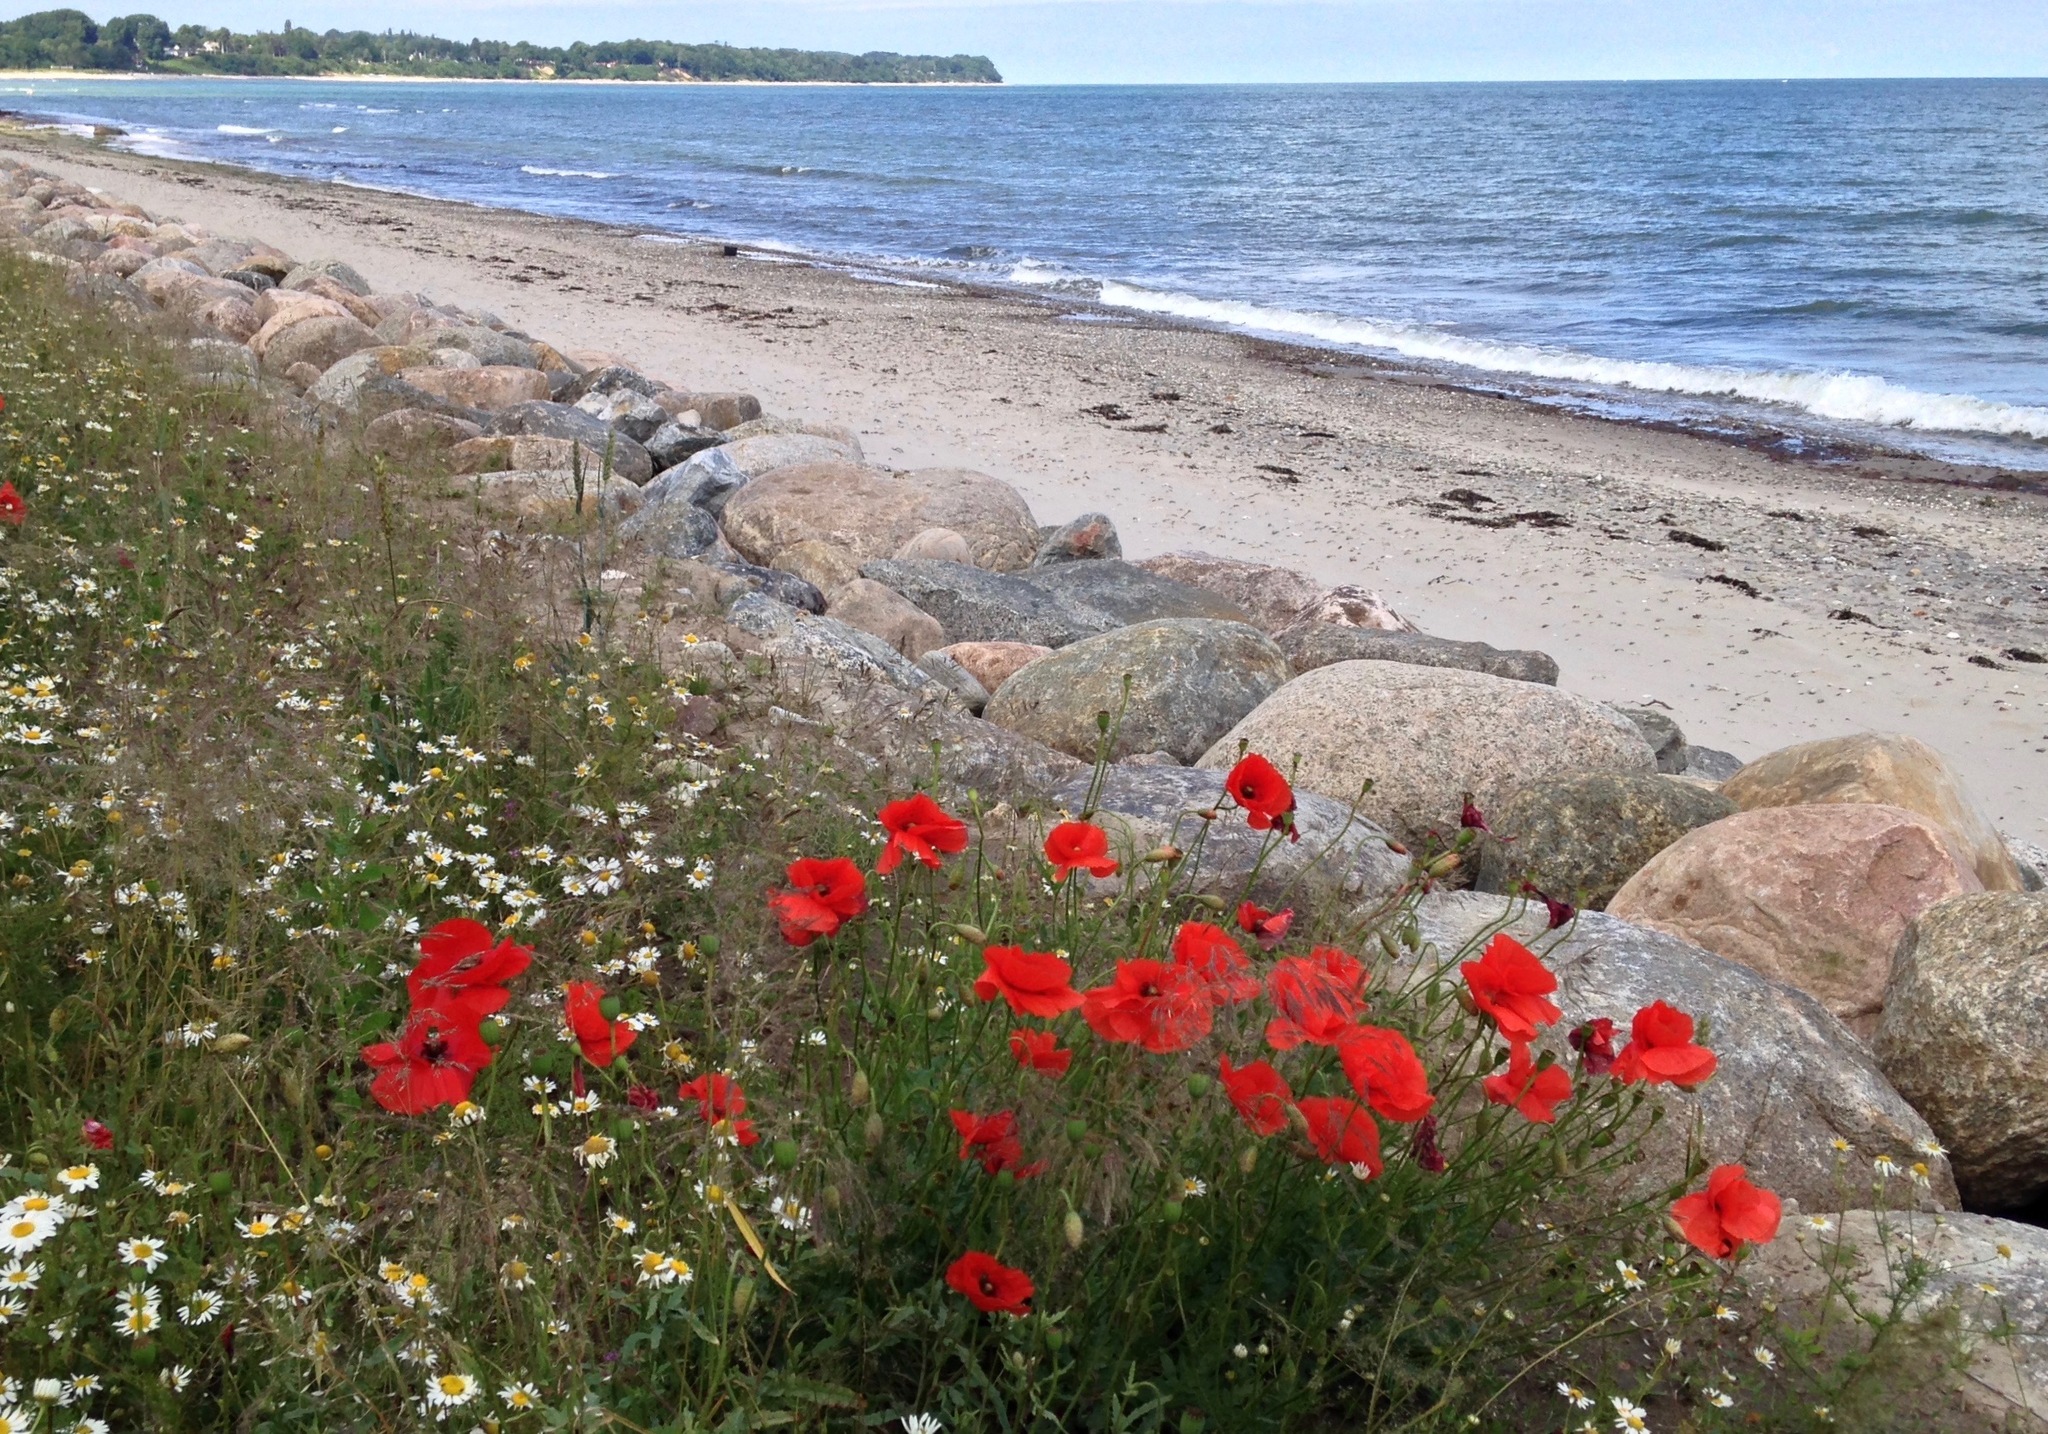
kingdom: Plantae
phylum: Tracheophyta
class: Magnoliopsida
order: Ranunculales
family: Papaveraceae
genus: Papaver
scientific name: Papaver rhoeas
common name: Corn poppy
